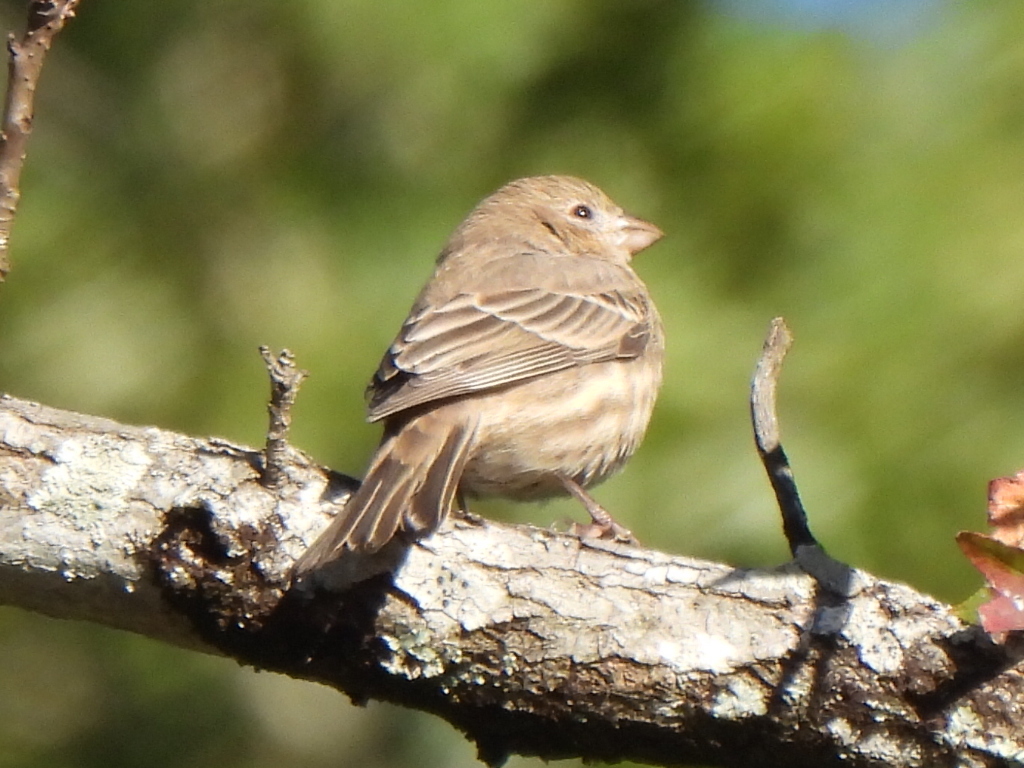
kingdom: Animalia
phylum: Chordata
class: Aves
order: Passeriformes
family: Fringillidae
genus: Haemorhous
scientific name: Haemorhous mexicanus
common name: House finch
